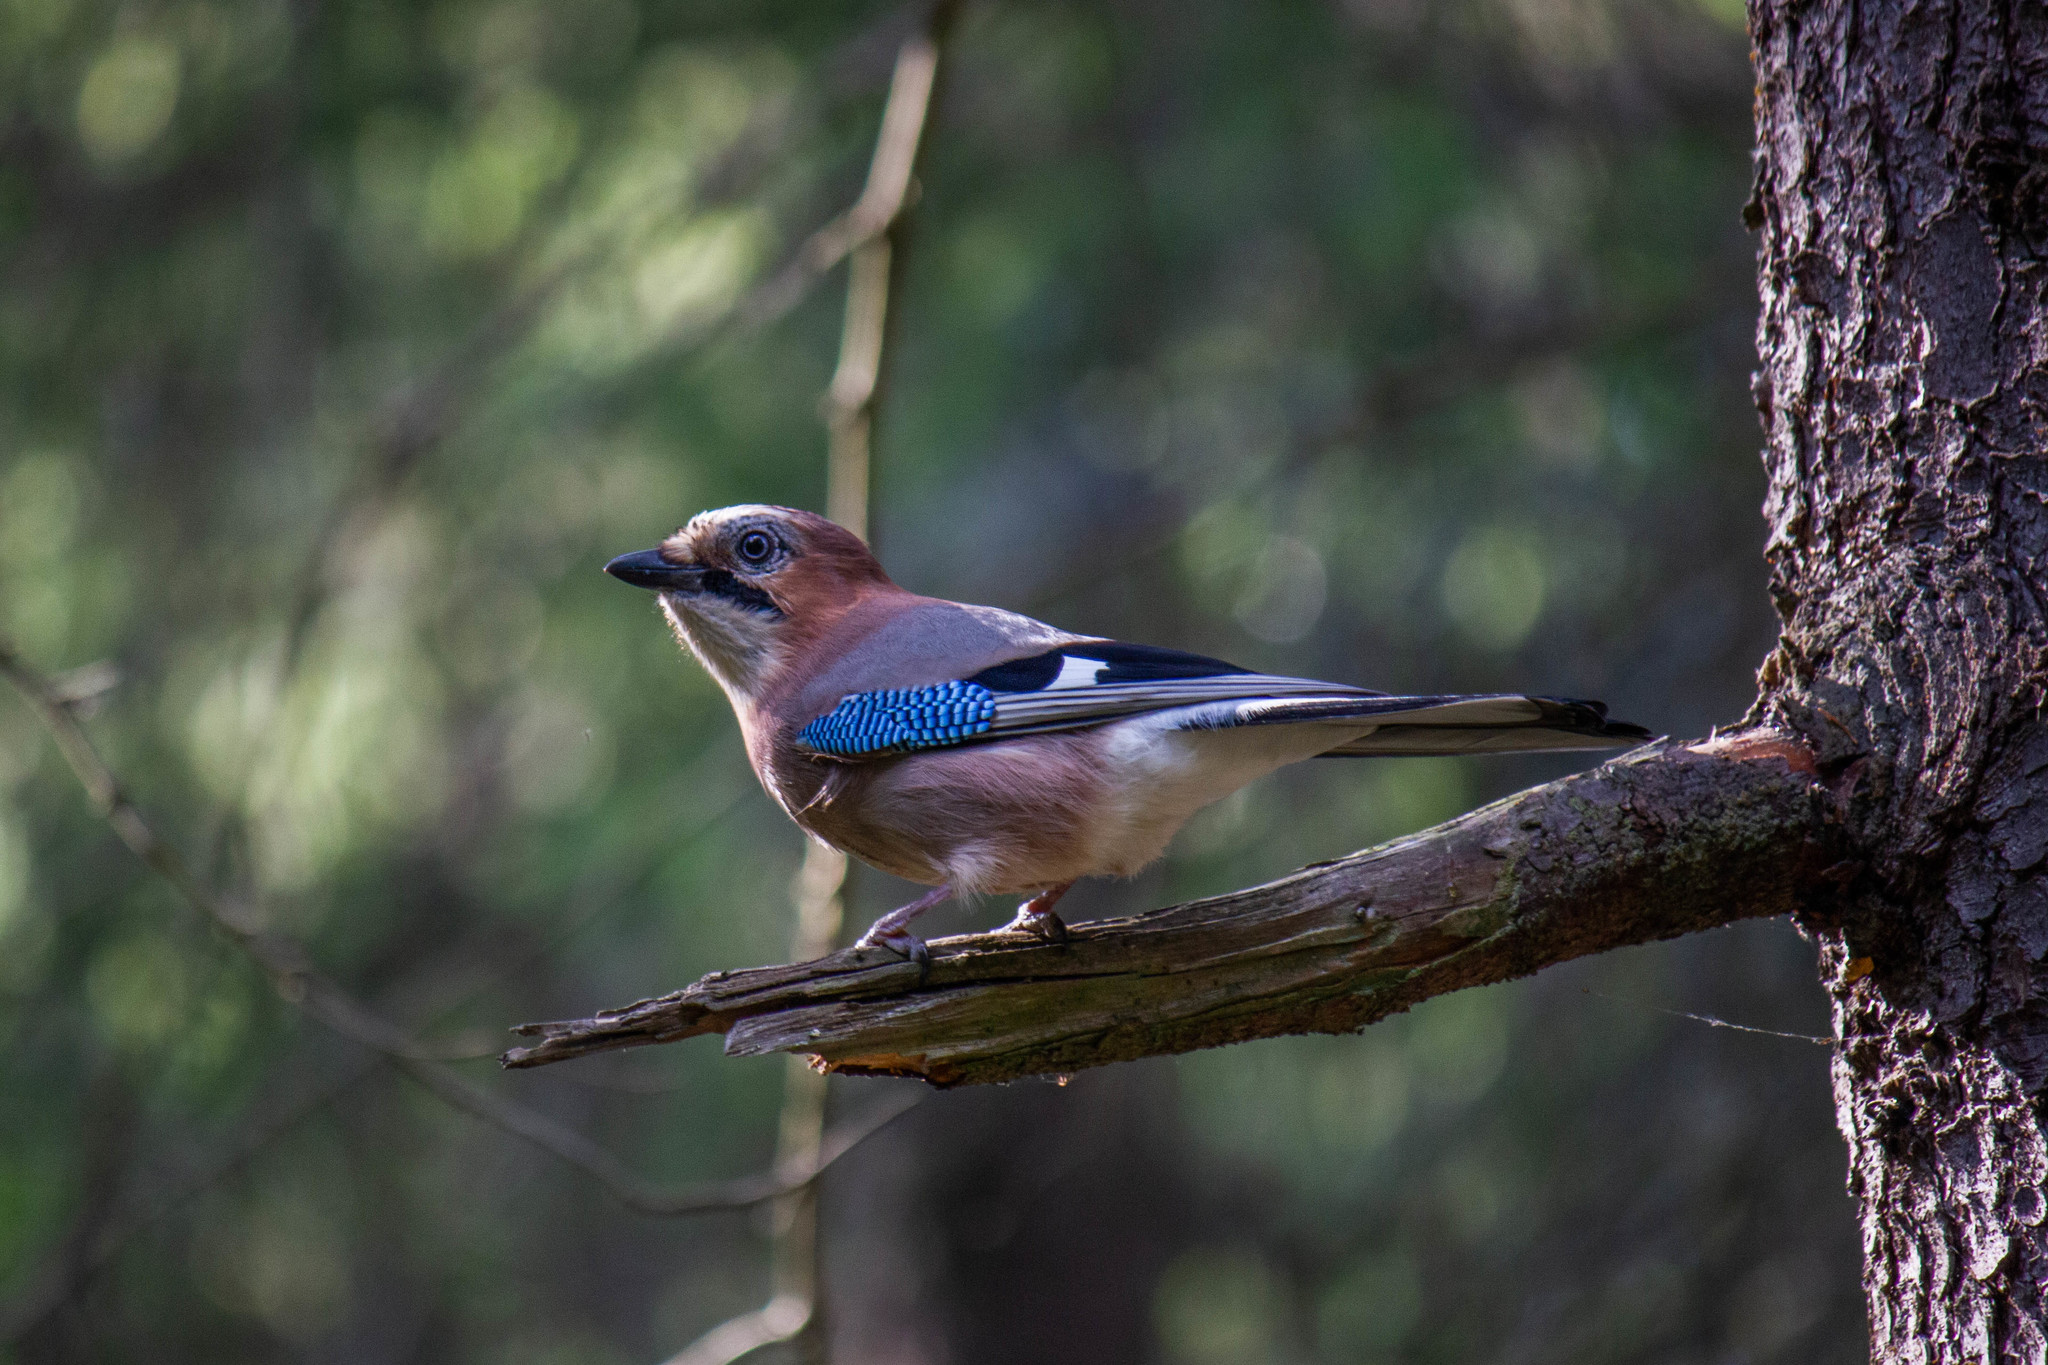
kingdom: Animalia
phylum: Chordata
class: Aves
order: Passeriformes
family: Corvidae
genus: Garrulus
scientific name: Garrulus glandarius
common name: Eurasian jay
